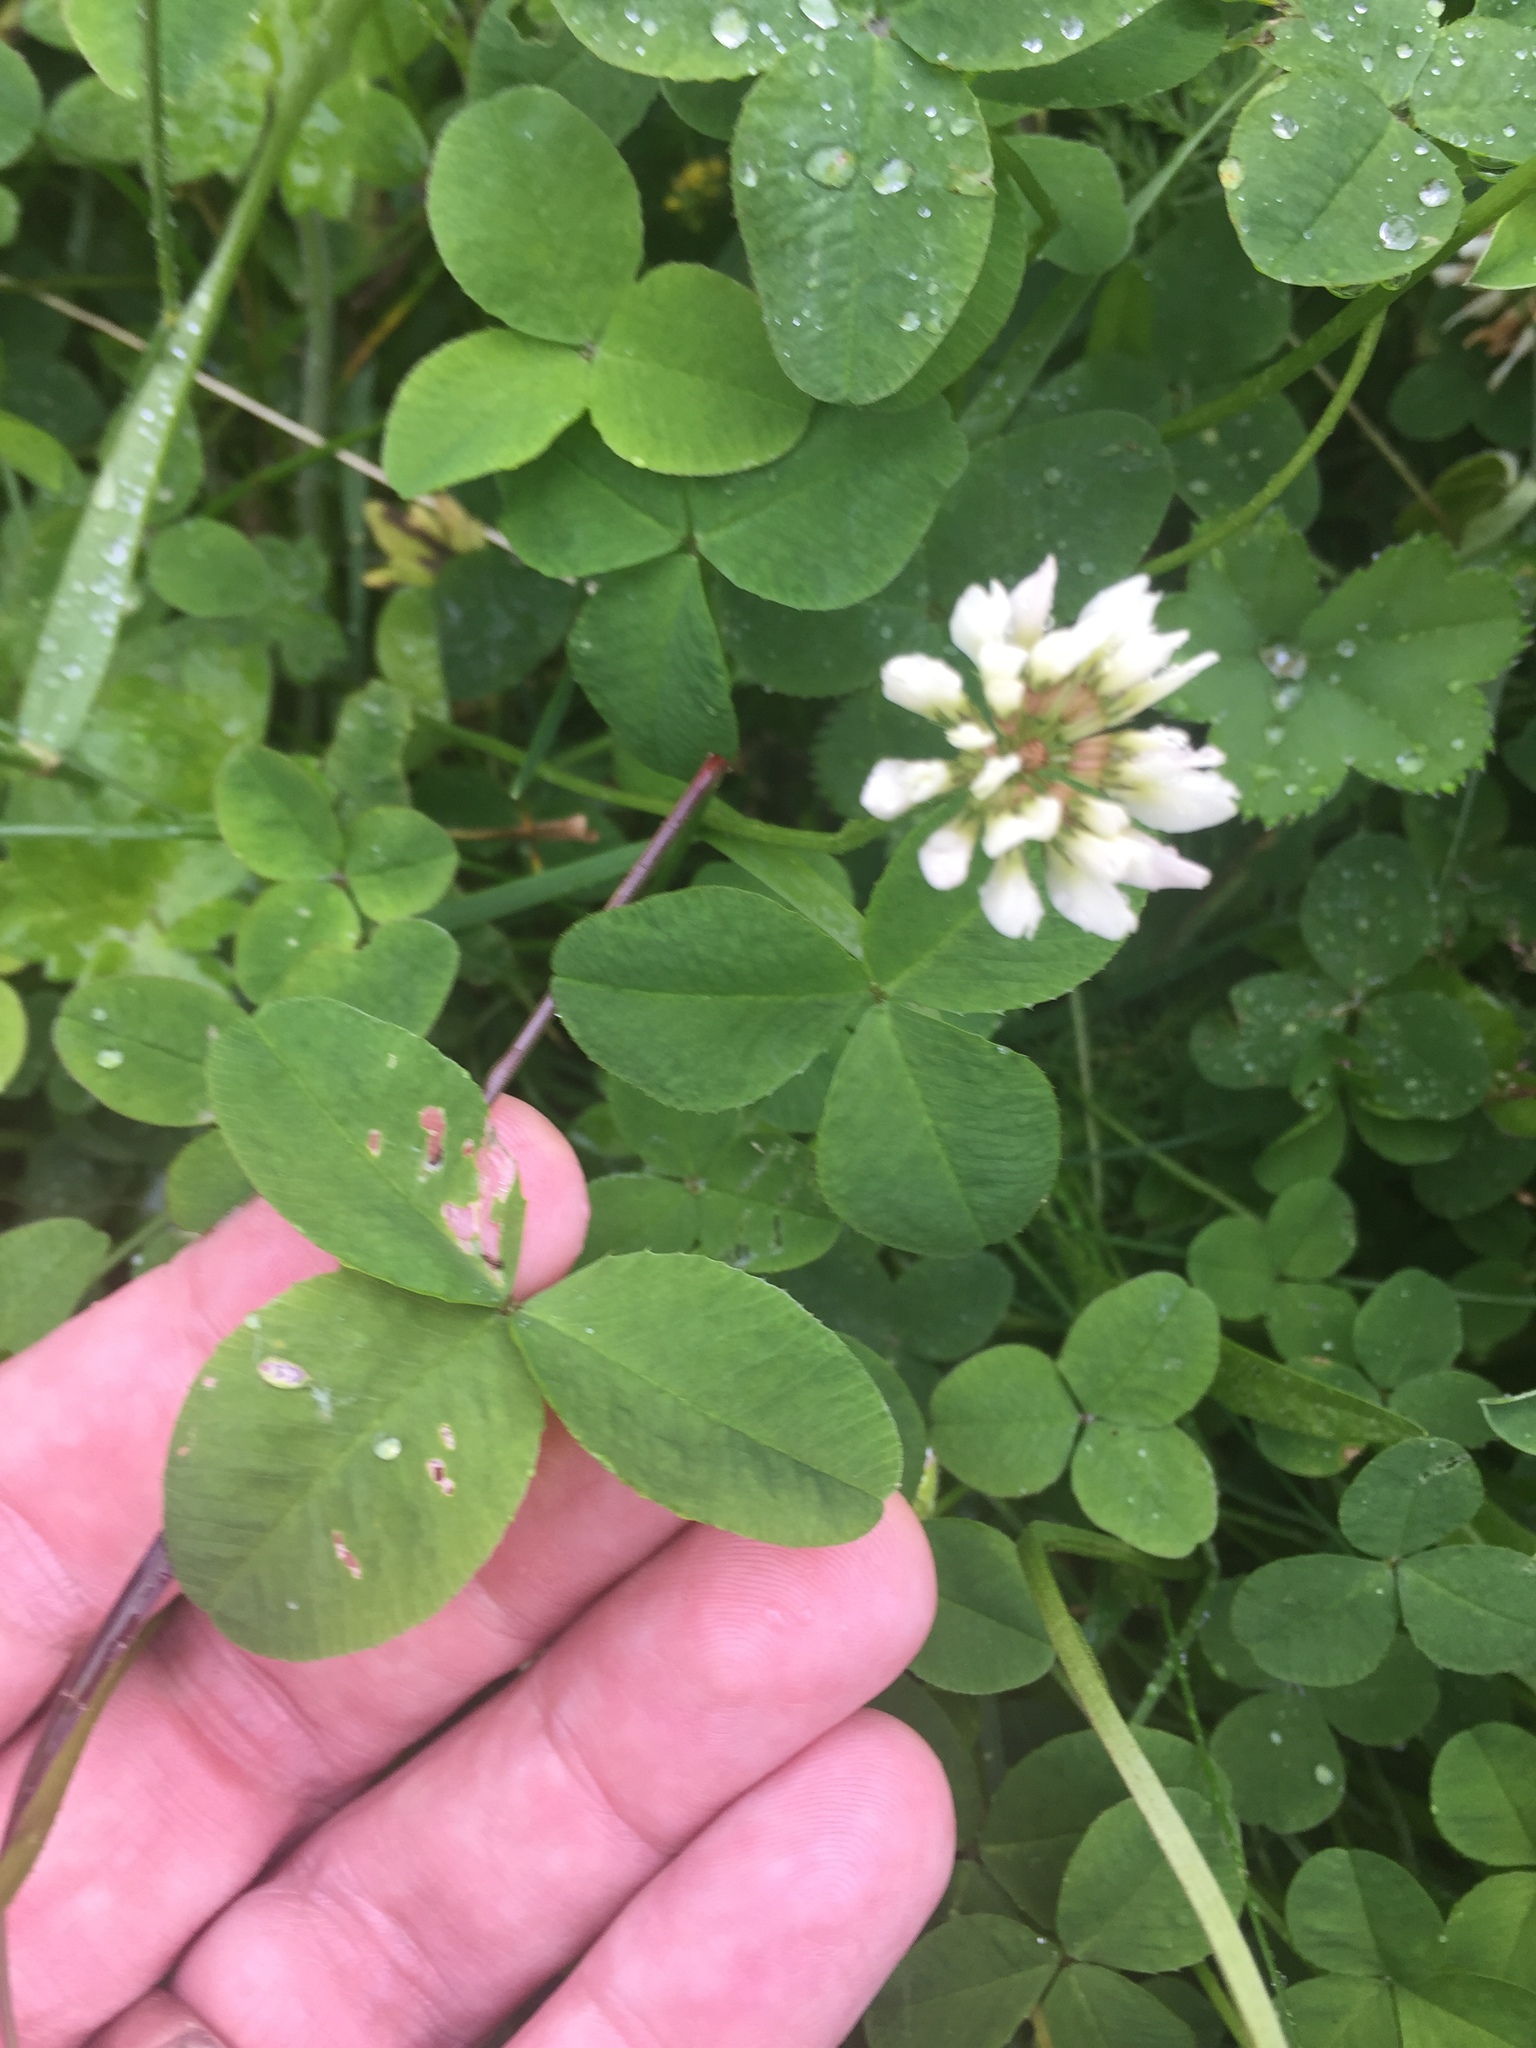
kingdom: Plantae
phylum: Tracheophyta
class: Magnoliopsida
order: Fabales
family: Fabaceae
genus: Trifolium
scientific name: Trifolium repens
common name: White clover
